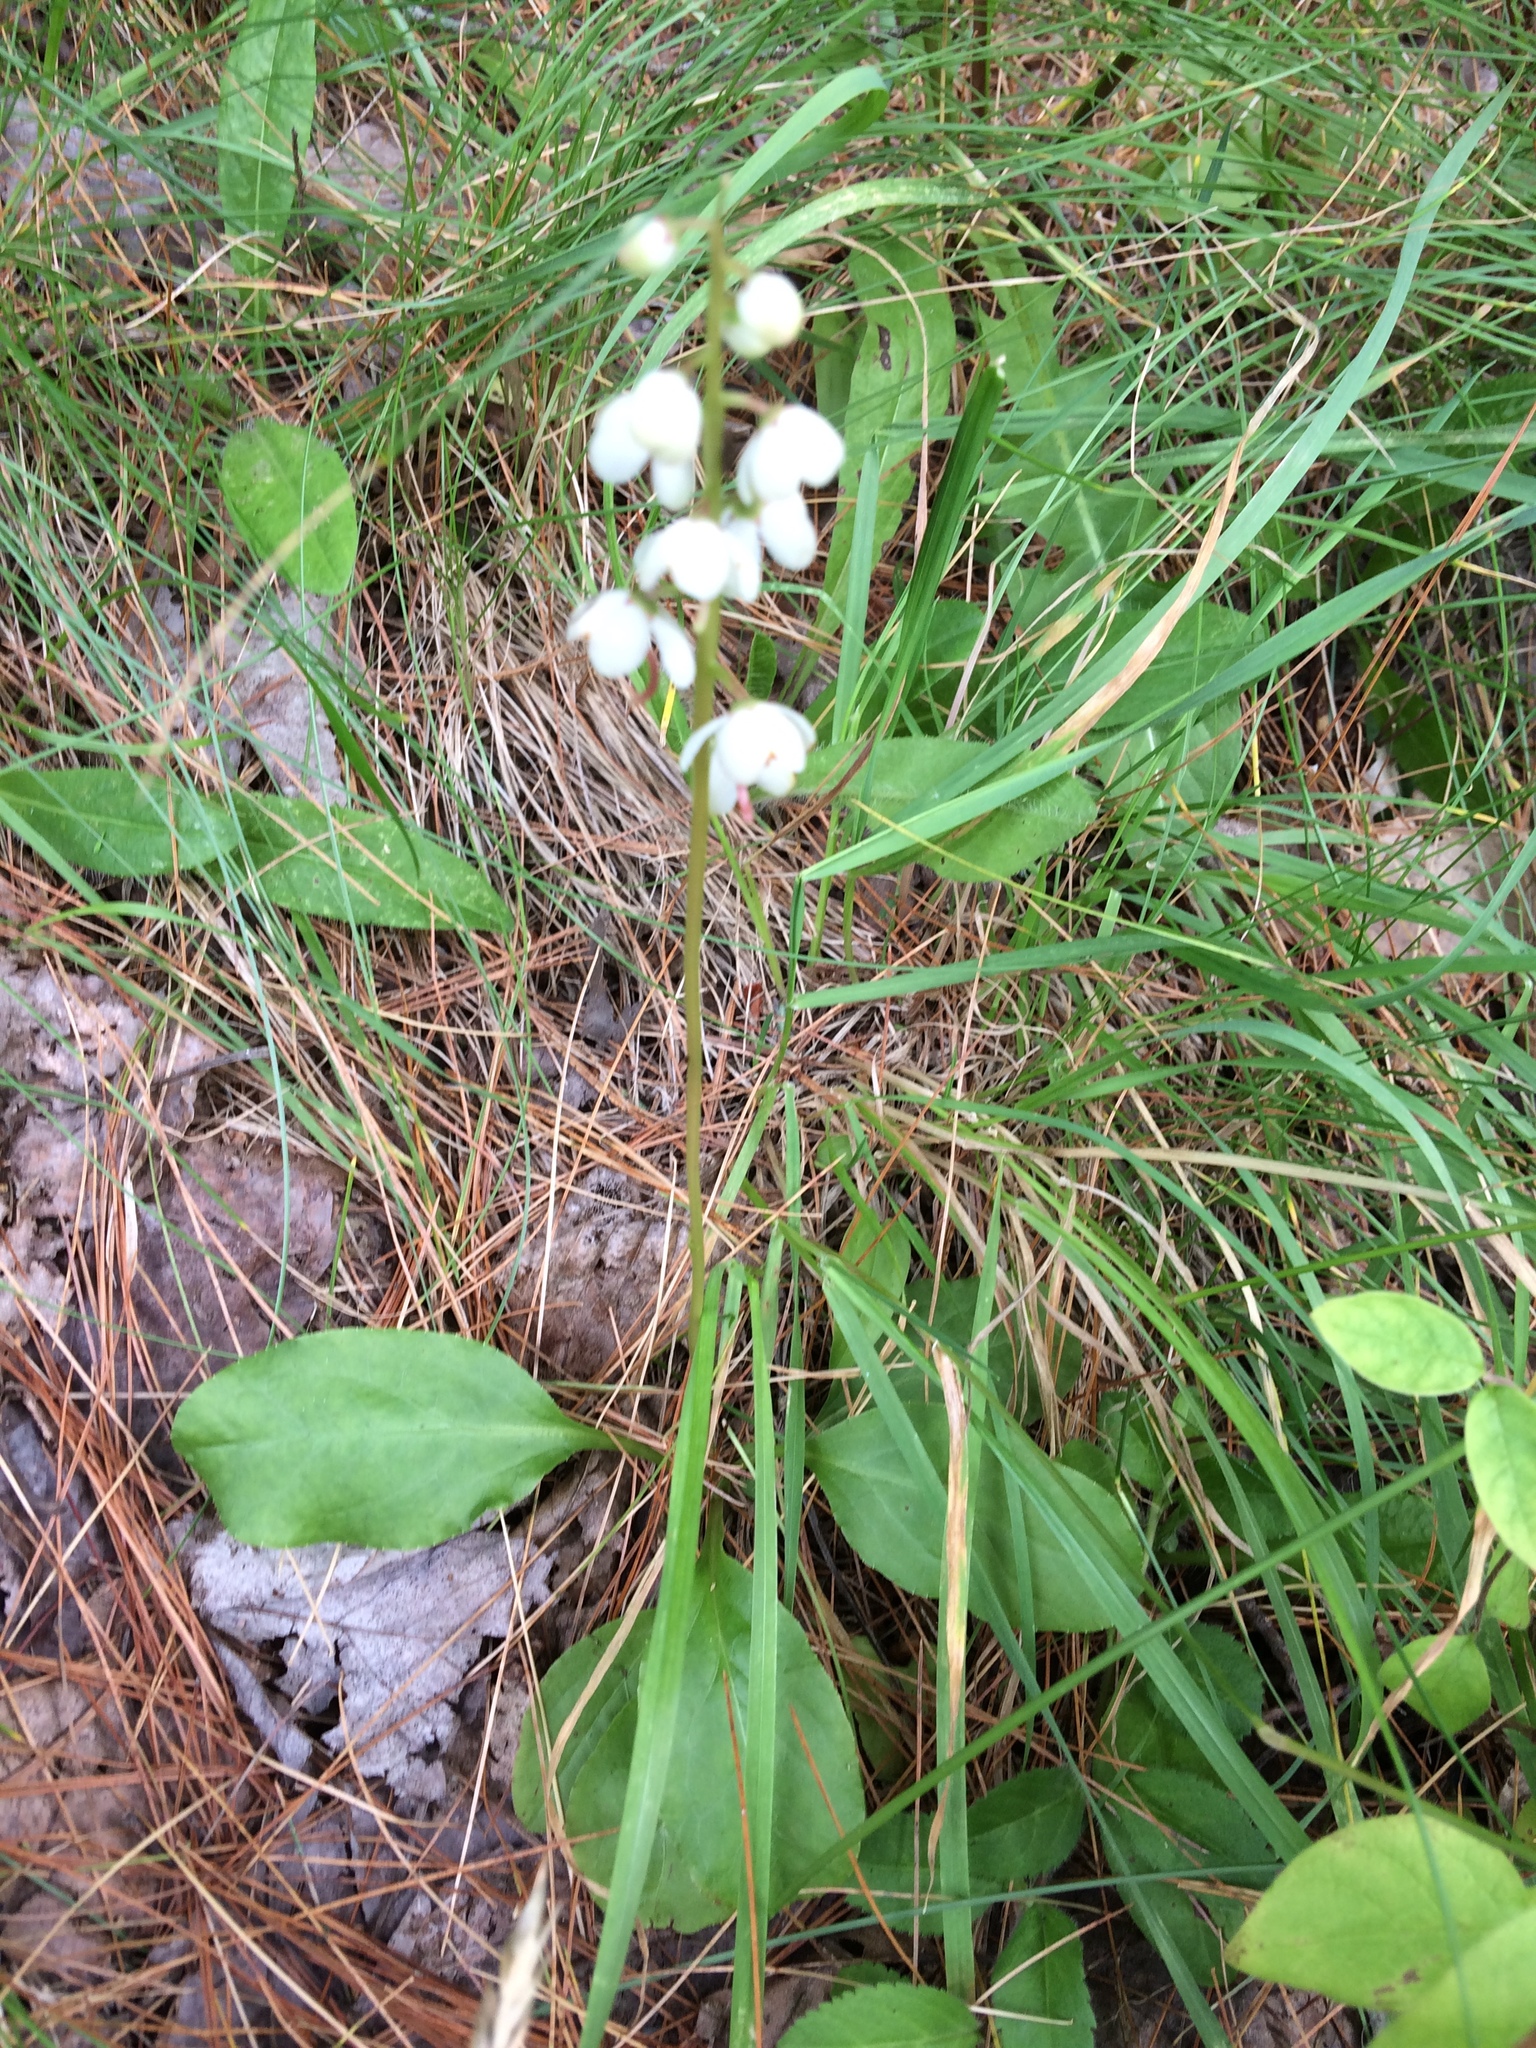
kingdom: Plantae
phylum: Tracheophyta
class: Magnoliopsida
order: Ericales
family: Ericaceae
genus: Pyrola
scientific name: Pyrola elliptica
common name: Shinleaf
